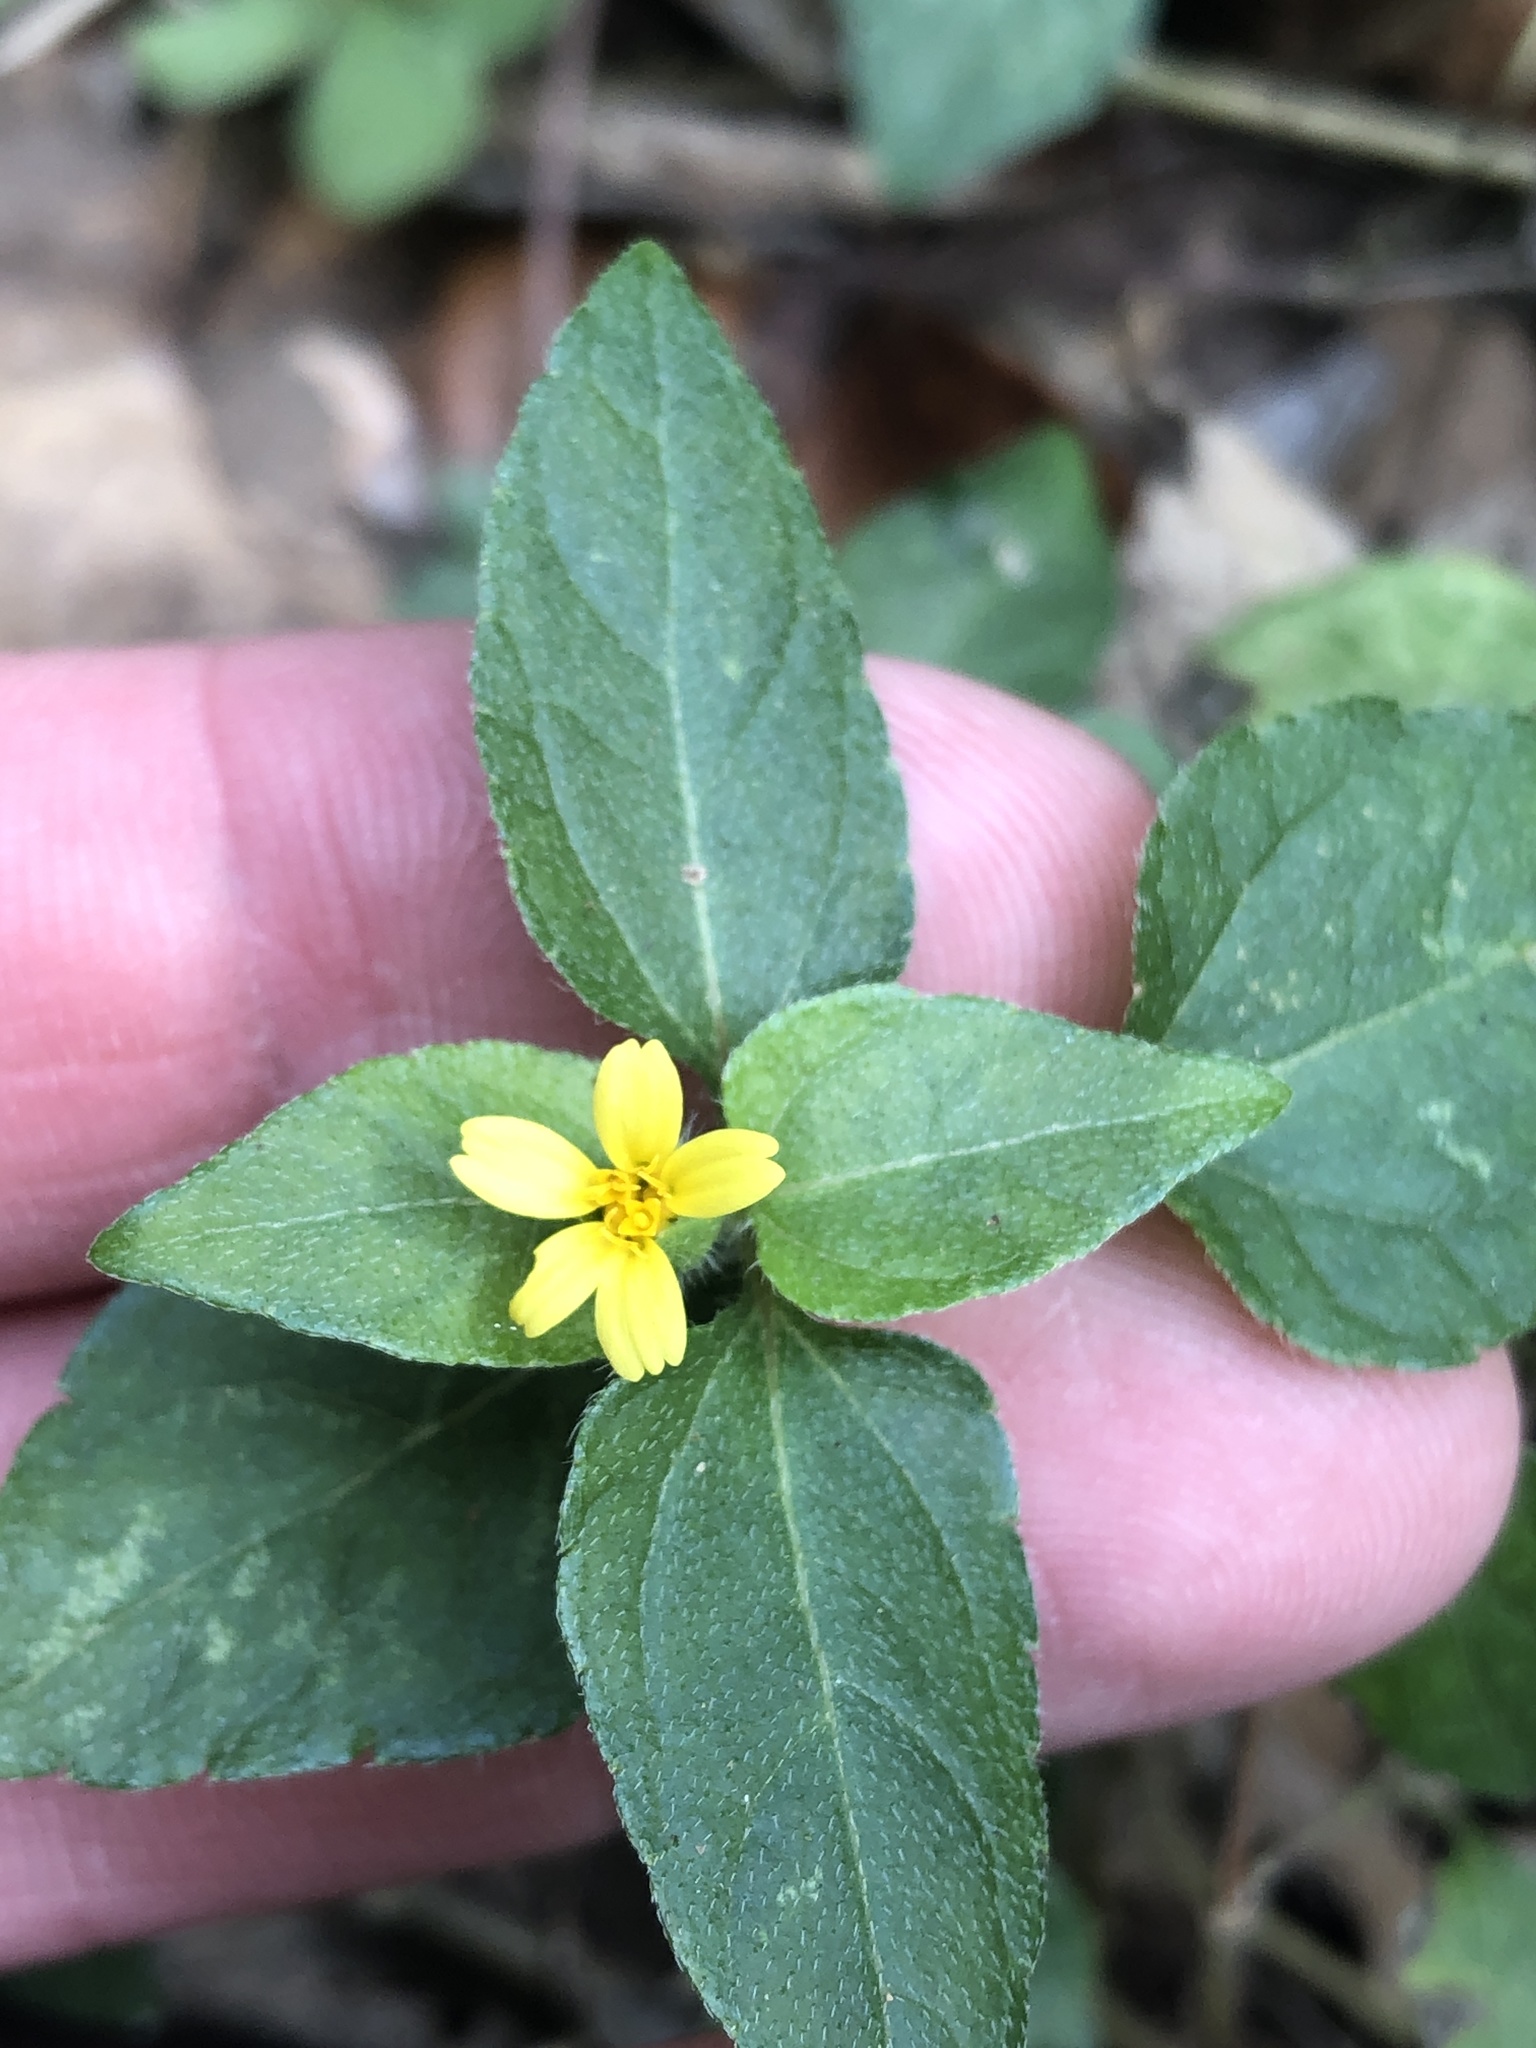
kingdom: Plantae
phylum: Tracheophyta
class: Magnoliopsida
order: Asterales
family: Asteraceae
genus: Calyptocarpus
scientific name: Calyptocarpus vialis
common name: Straggler daisy
